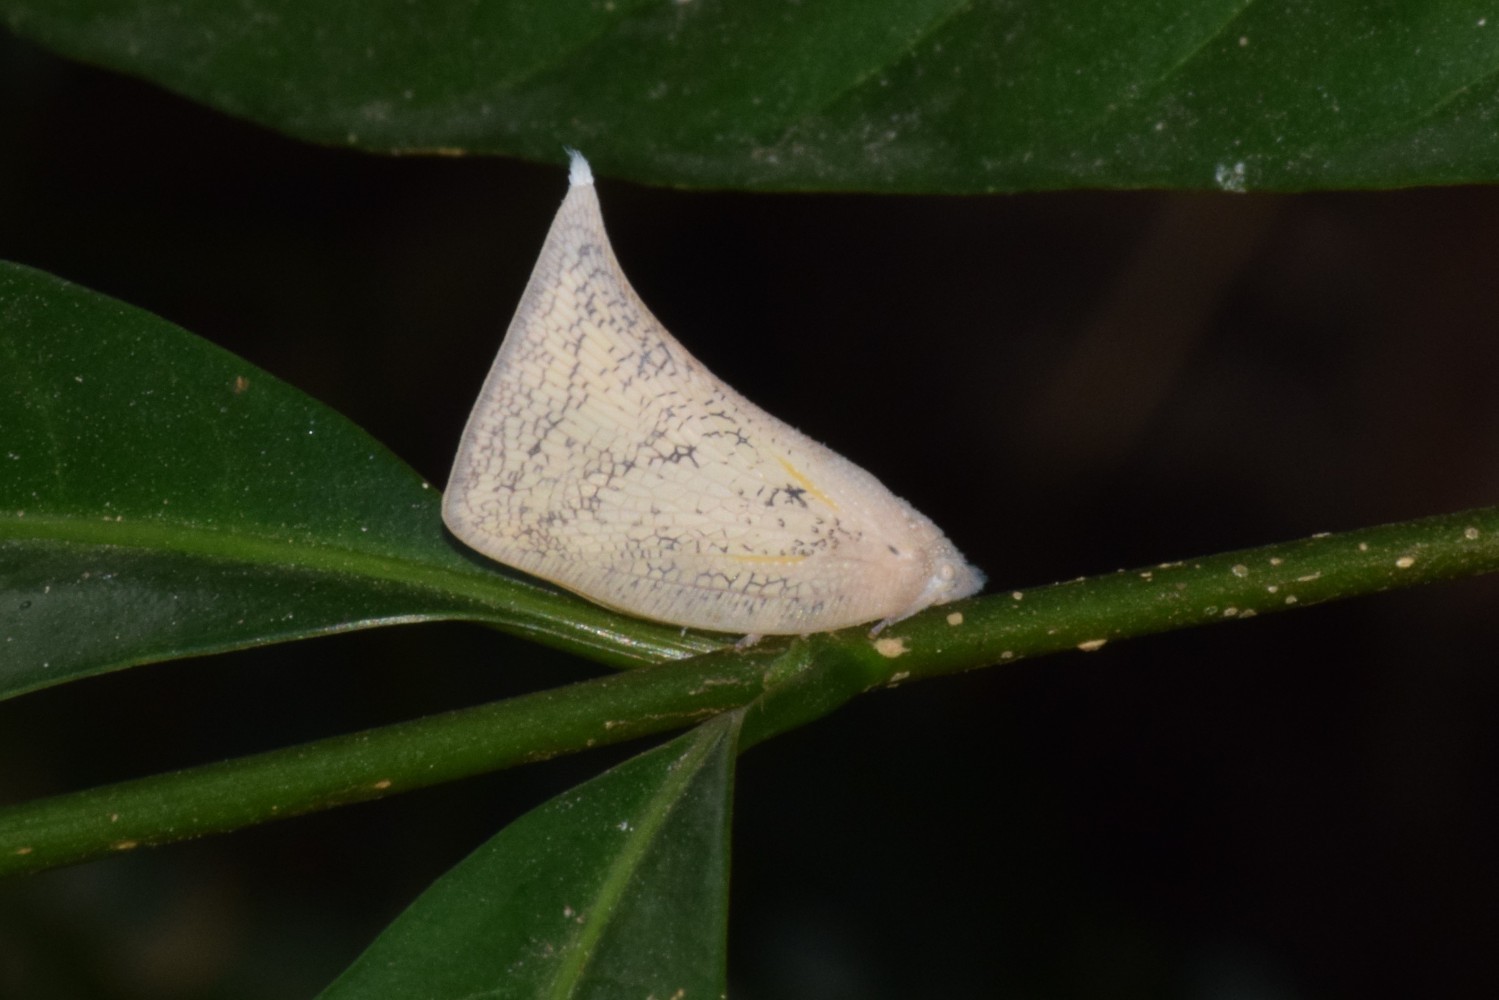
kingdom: Animalia
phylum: Arthropoda
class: Insecta
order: Hemiptera
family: Flatidae
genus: Lawana
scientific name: Lawana conspersa
